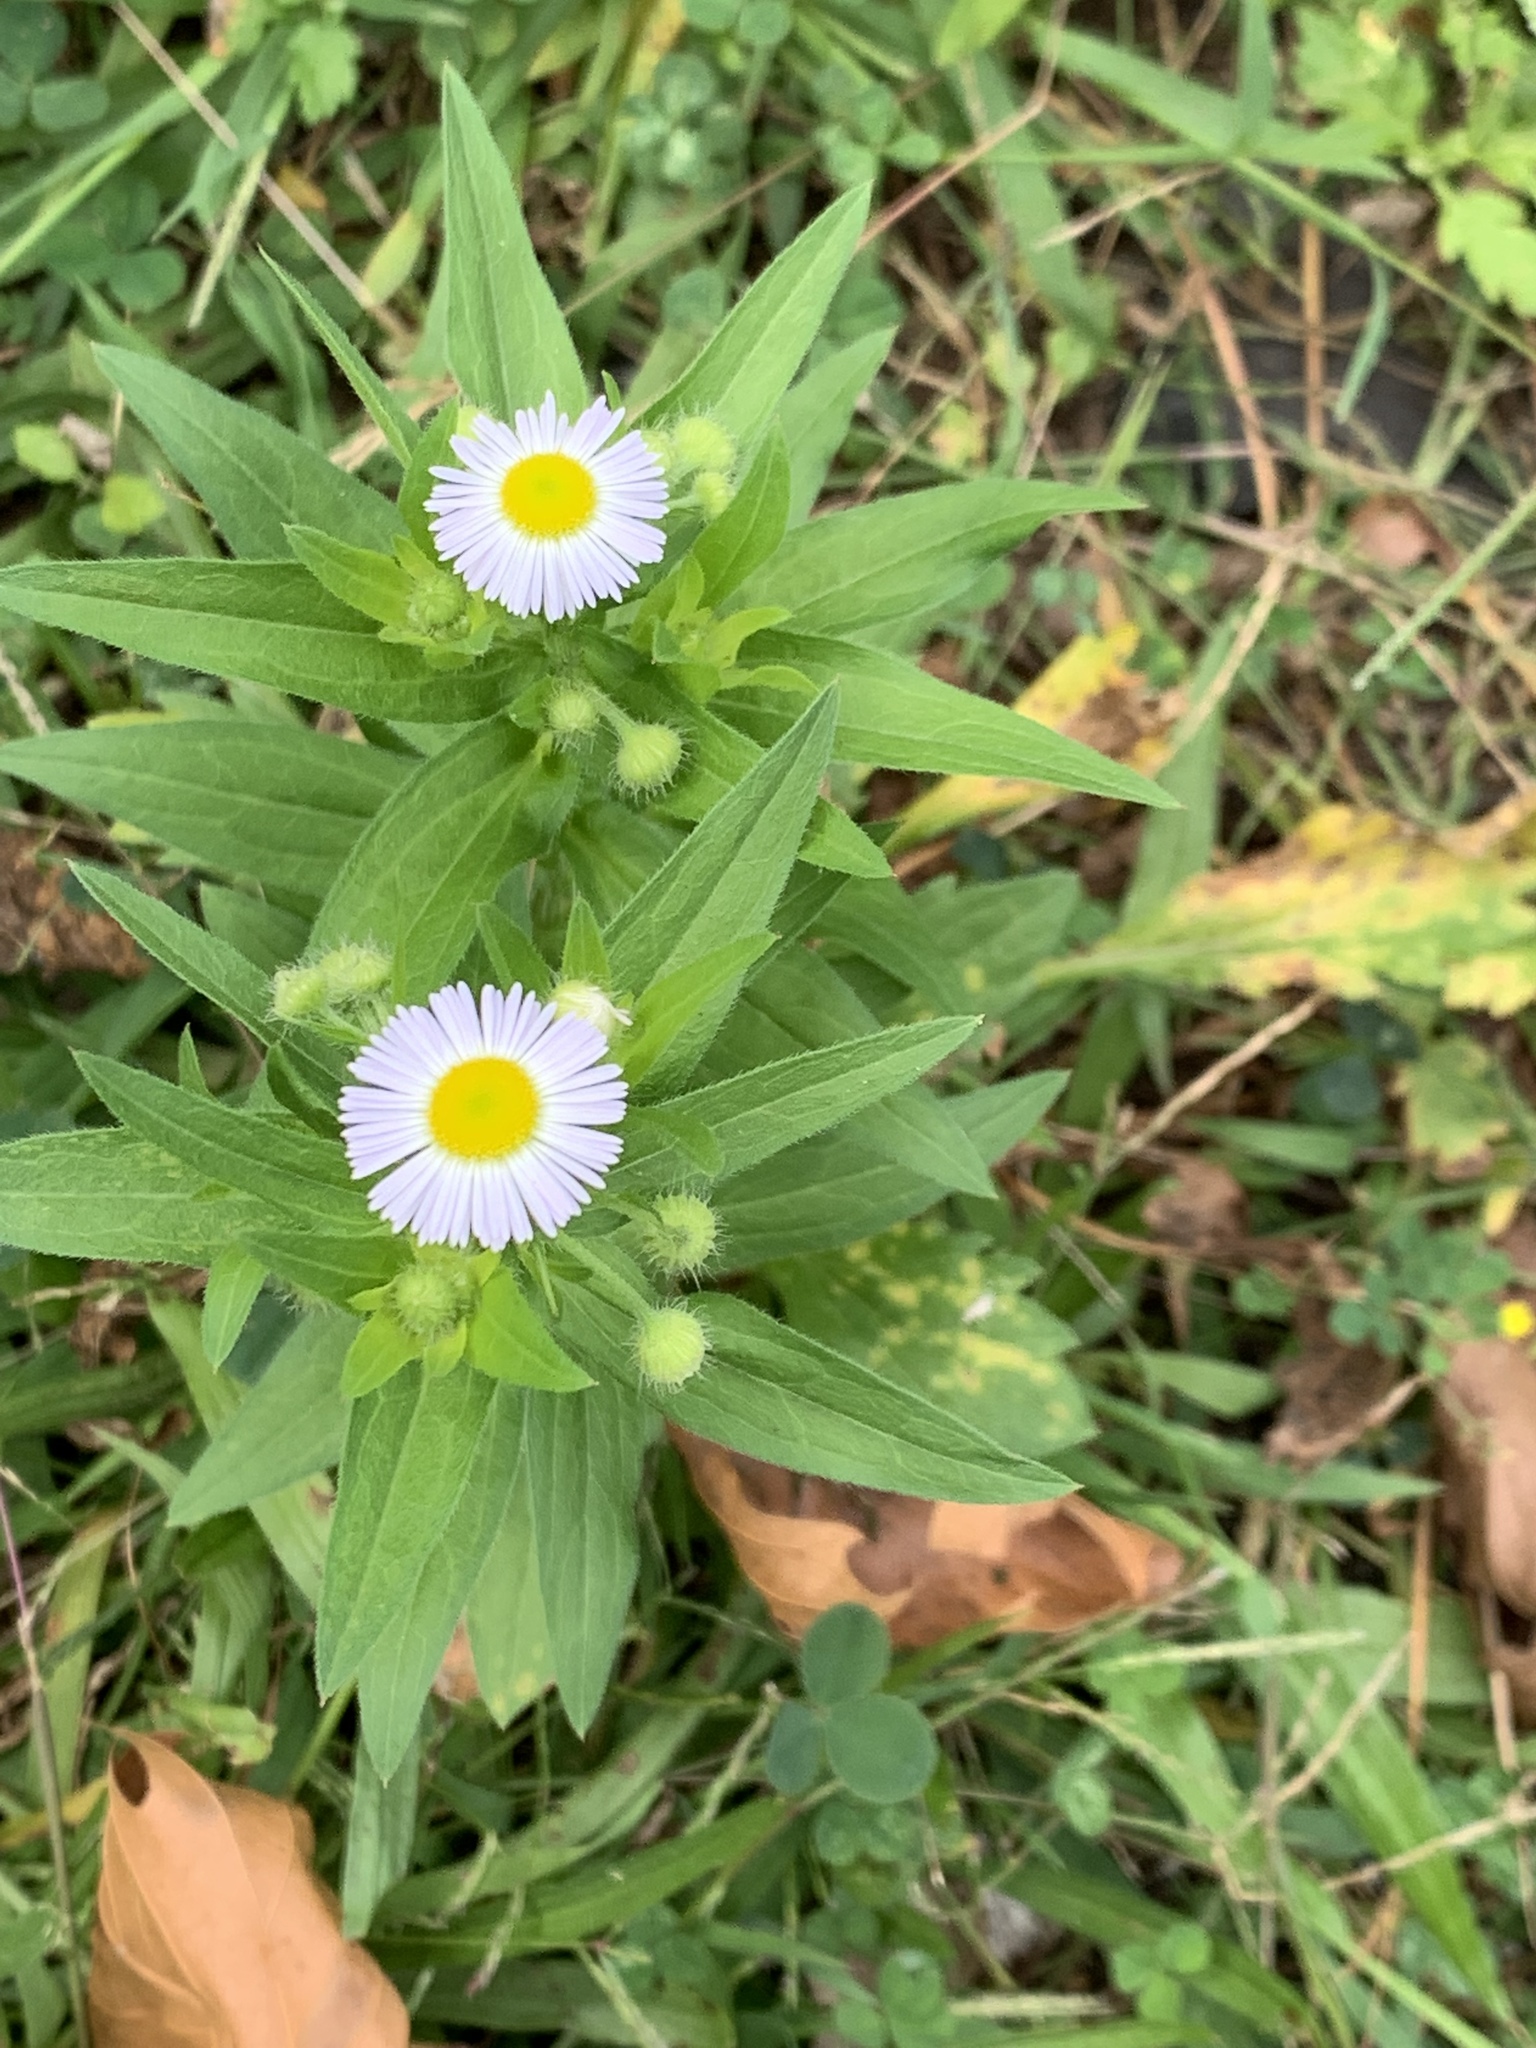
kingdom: Plantae
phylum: Tracheophyta
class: Magnoliopsida
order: Asterales
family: Asteraceae
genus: Erigeron
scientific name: Erigeron annuus
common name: Tall fleabane
